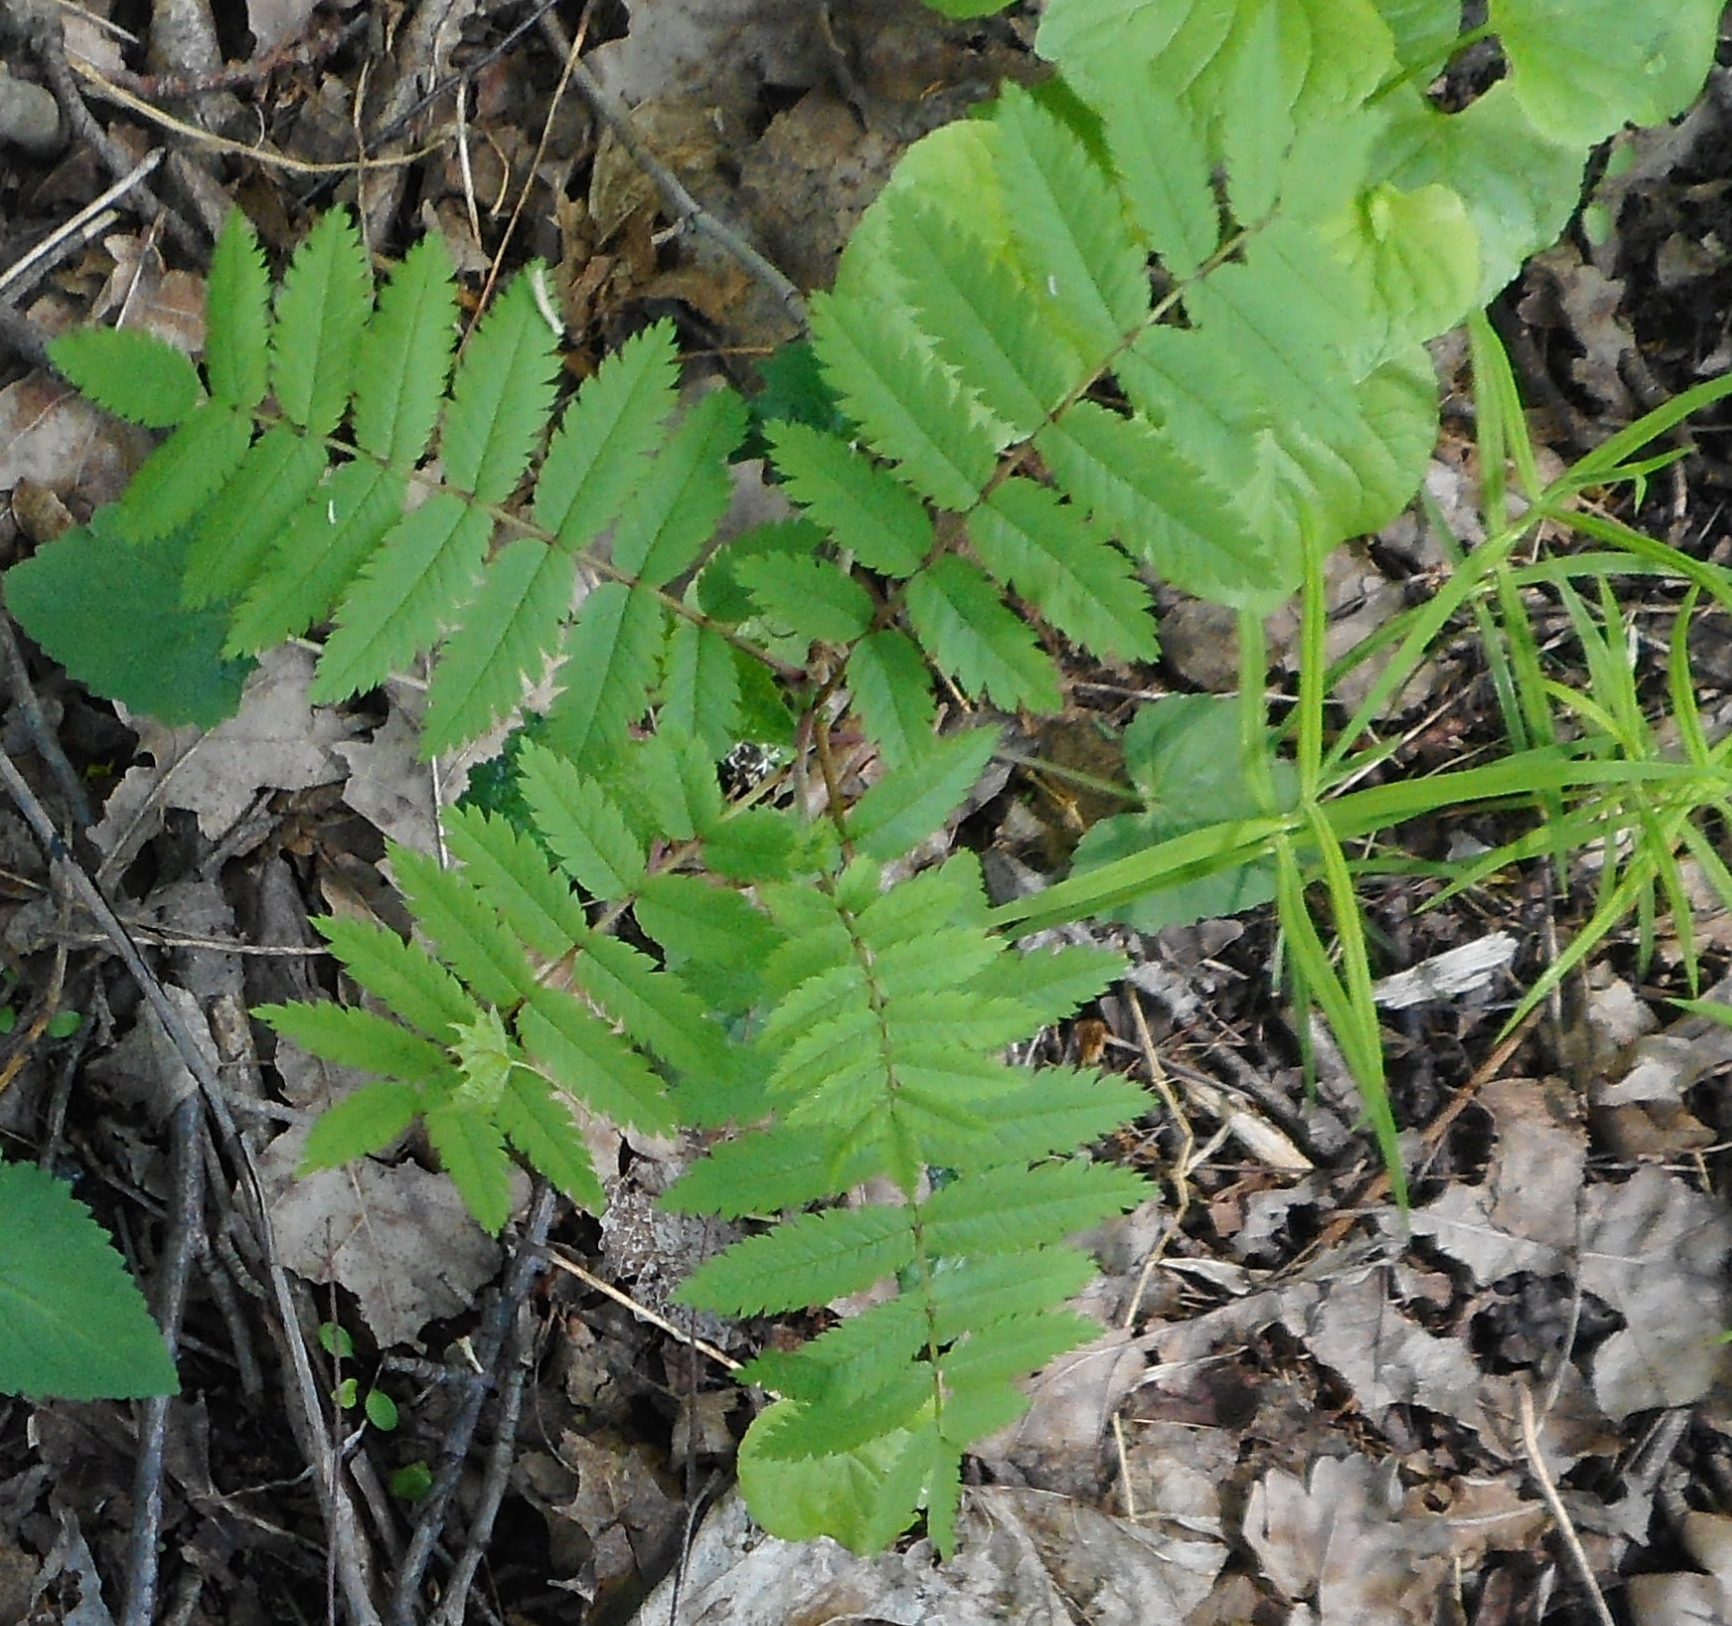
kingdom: Plantae
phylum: Tracheophyta
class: Magnoliopsida
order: Rosales
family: Rosaceae
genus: Sorbus
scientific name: Sorbus aucuparia
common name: Rowan
